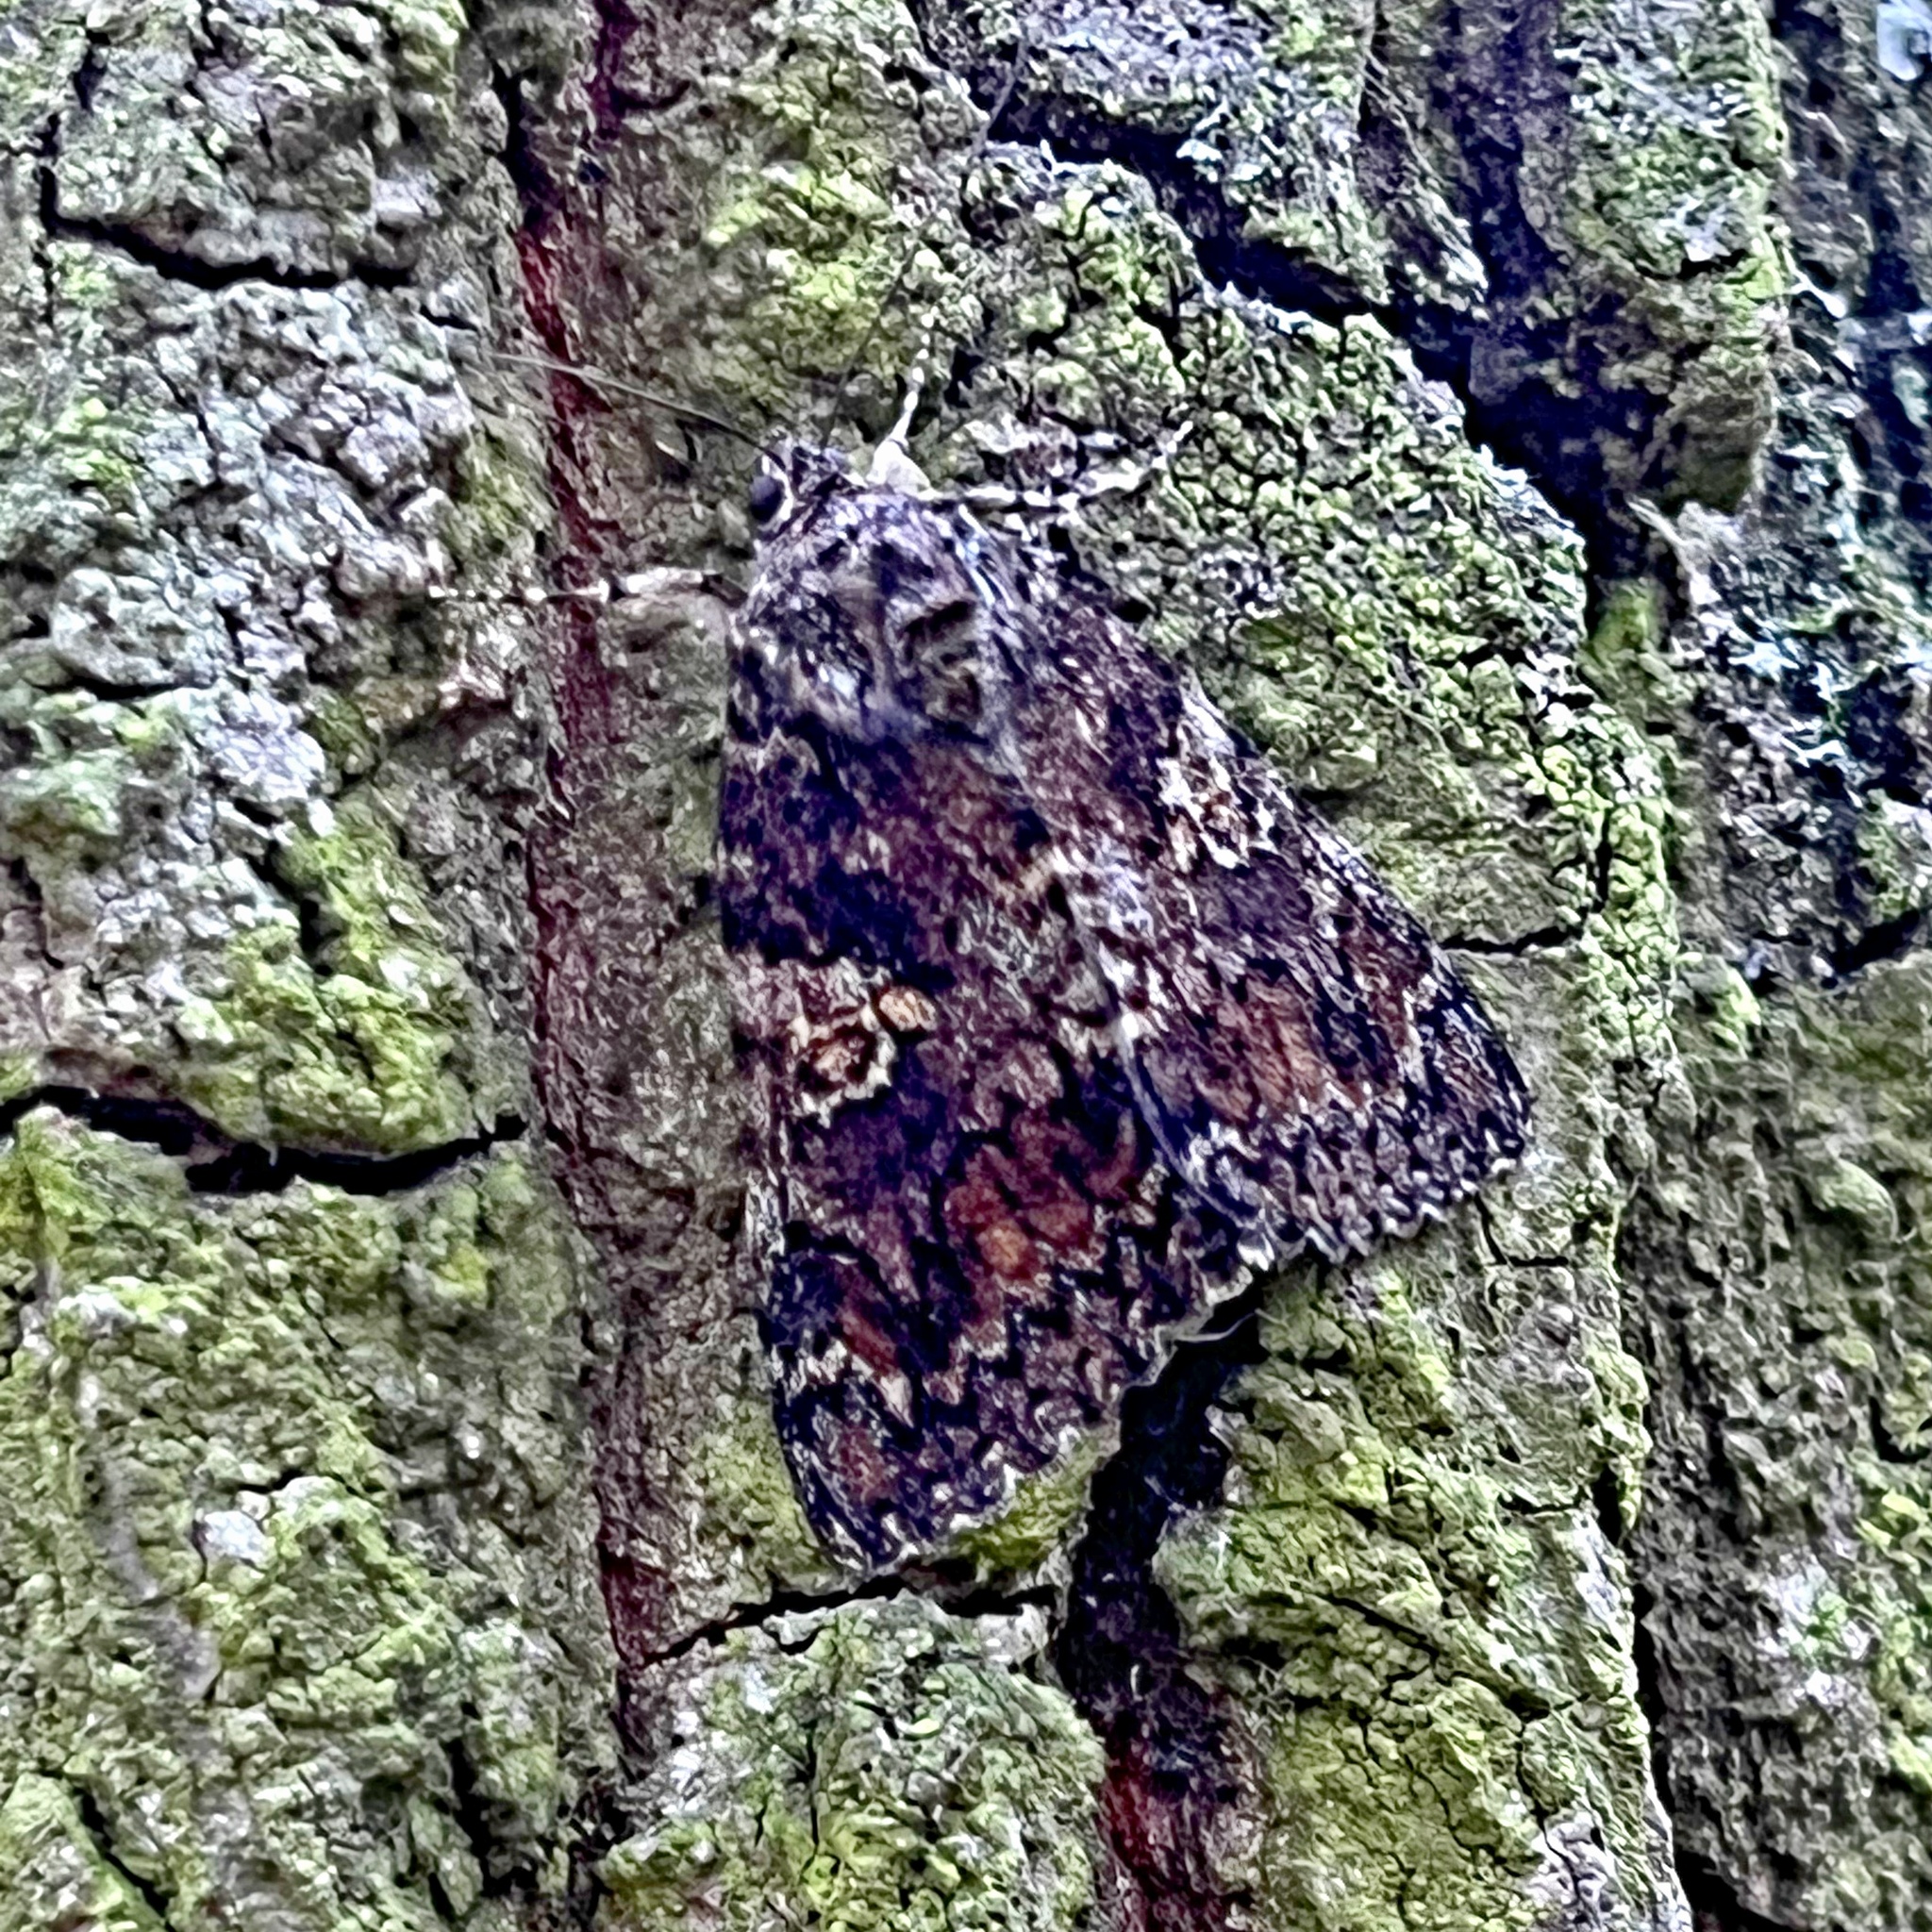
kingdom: Animalia
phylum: Arthropoda
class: Insecta
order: Lepidoptera
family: Erebidae
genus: Catocala
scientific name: Catocala sponsa
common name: Dark crimson underwing
